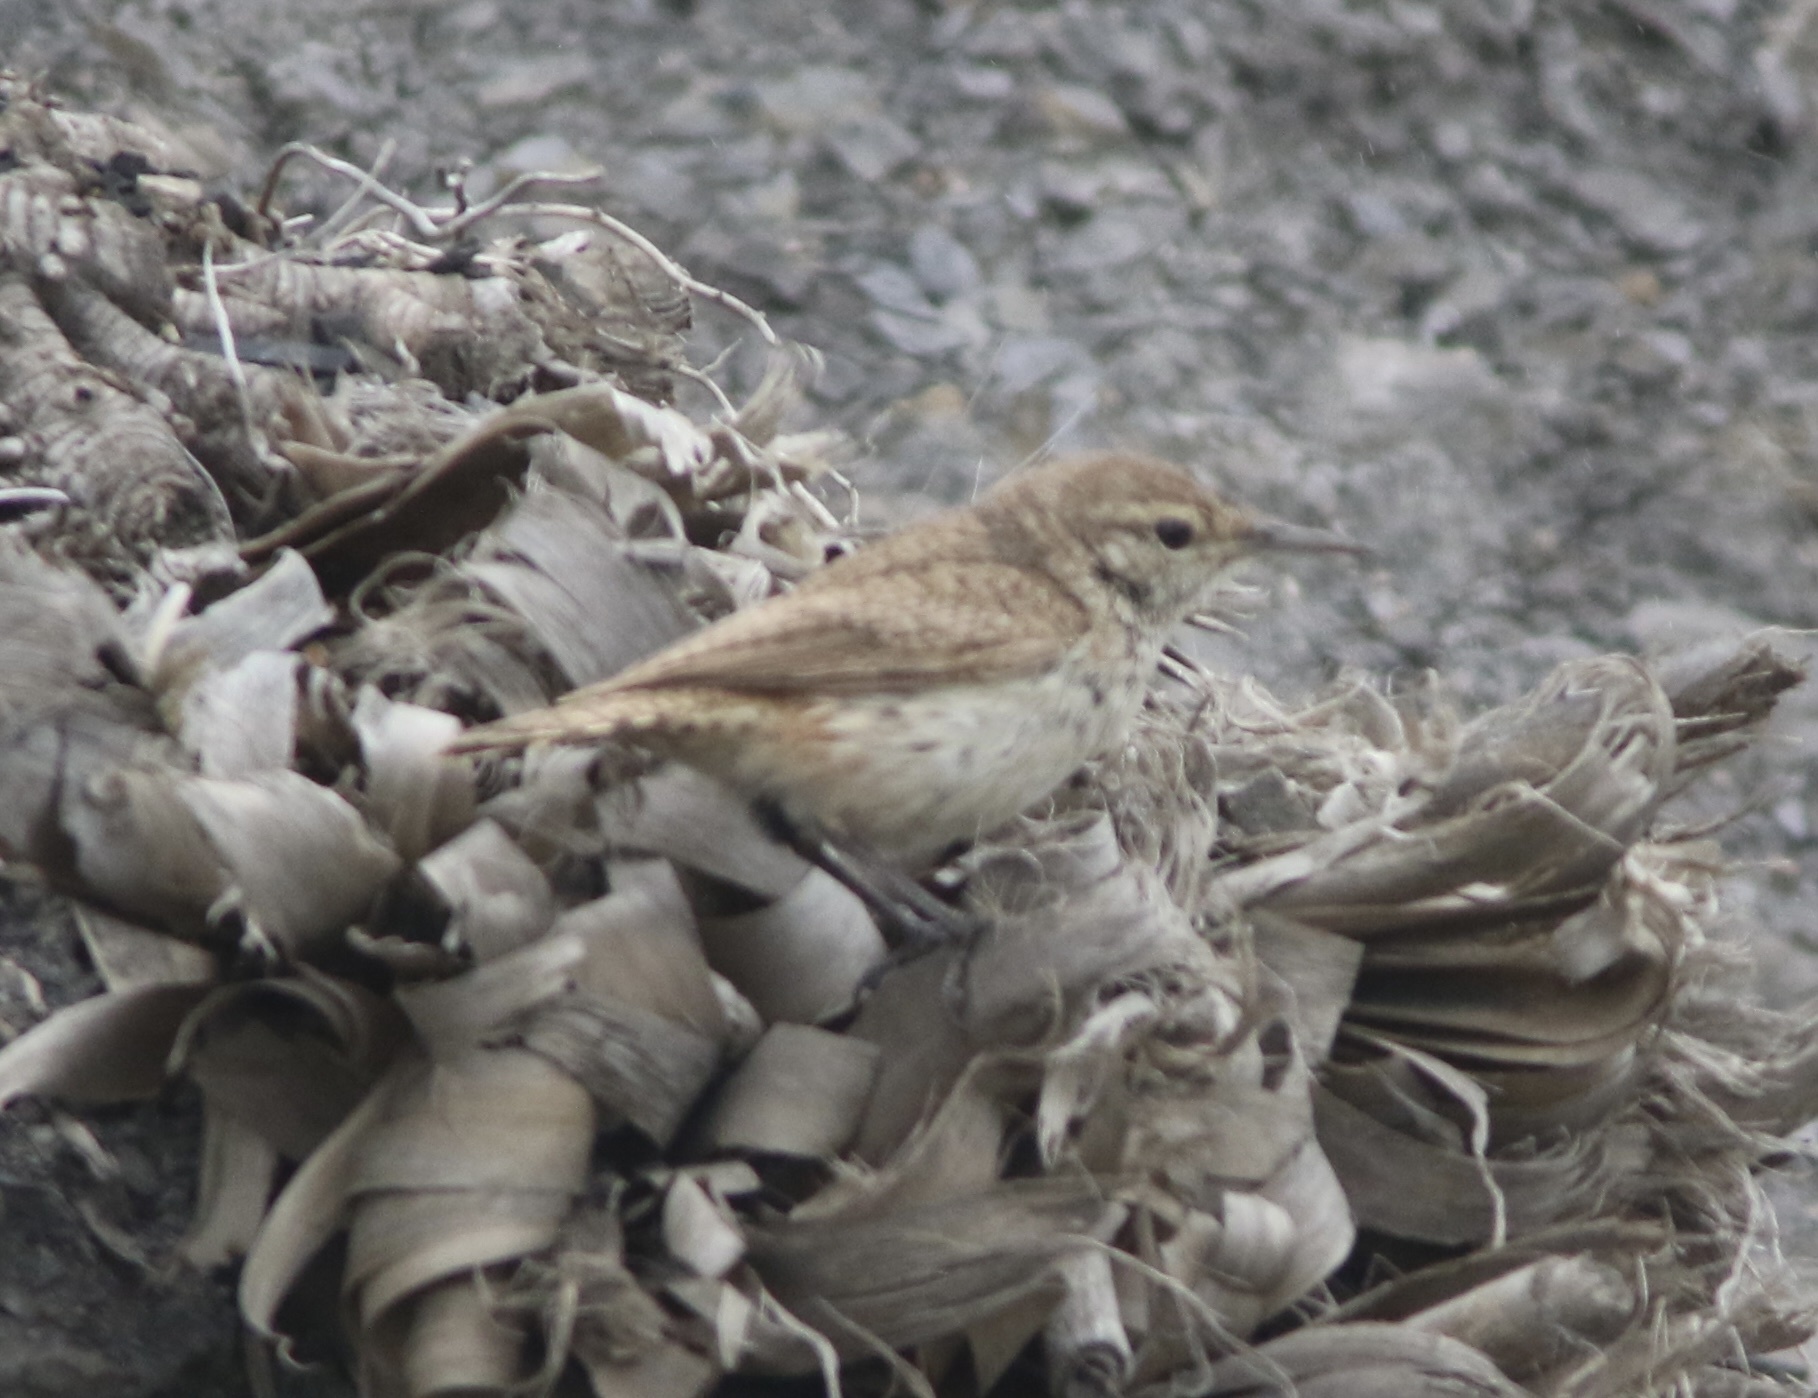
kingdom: Animalia
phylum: Chordata
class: Aves
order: Passeriformes
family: Troglodytidae
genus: Salpinctes
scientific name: Salpinctes obsoletus
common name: Rock wren
